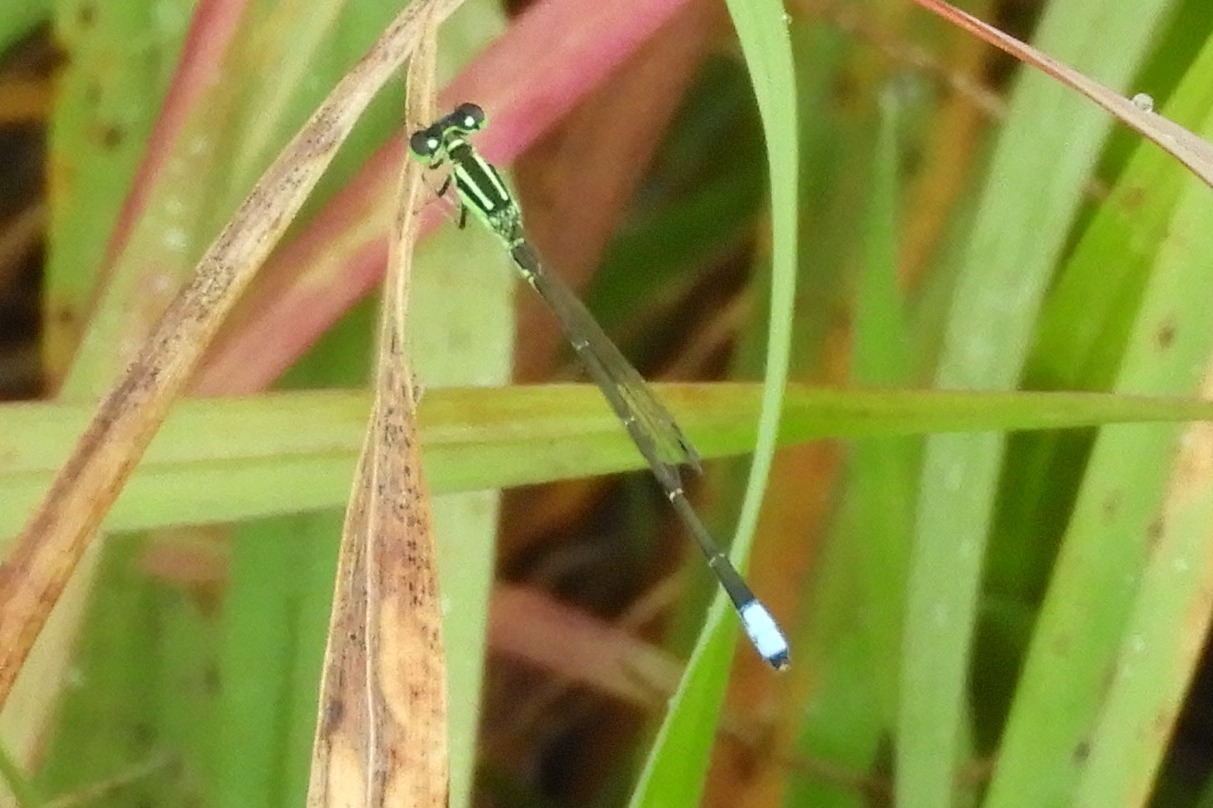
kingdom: Animalia
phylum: Arthropoda
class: Insecta
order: Odonata
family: Coenagrionidae
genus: Ischnura
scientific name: Ischnura verticalis
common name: Eastern forktail
